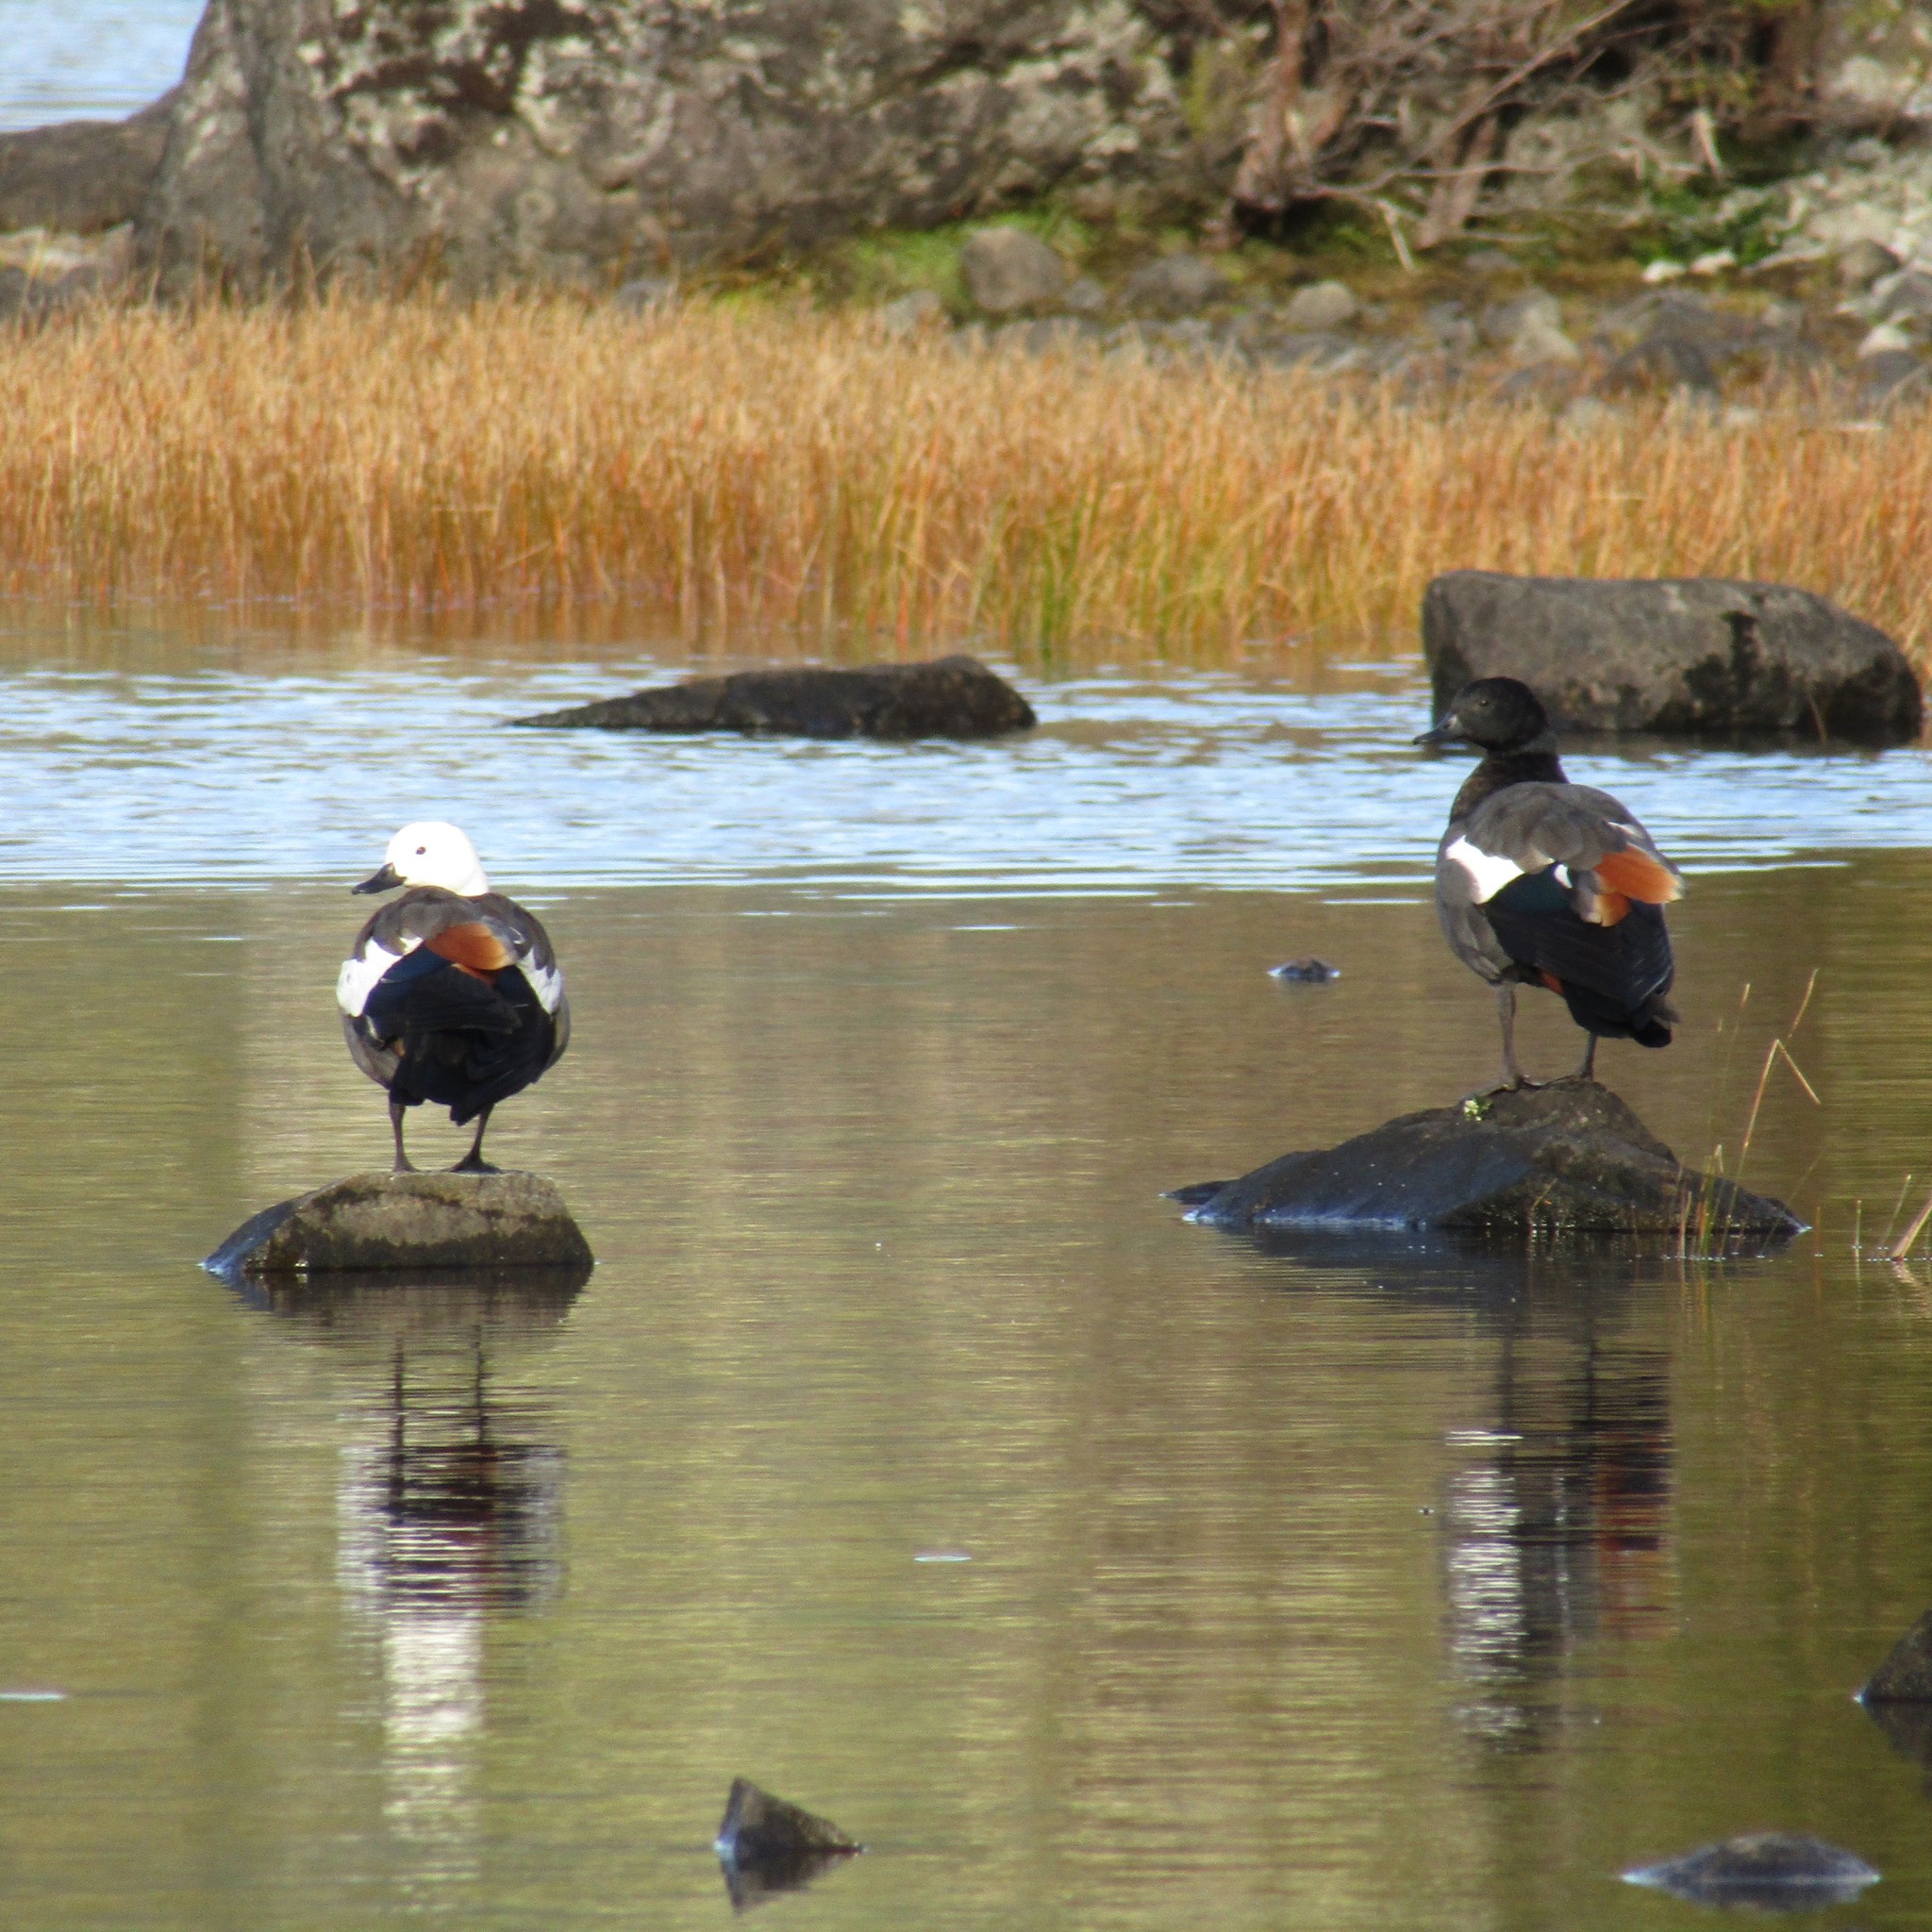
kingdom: Animalia
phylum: Chordata
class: Aves
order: Anseriformes
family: Anatidae
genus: Tadorna
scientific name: Tadorna variegata
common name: Paradise shelduck
